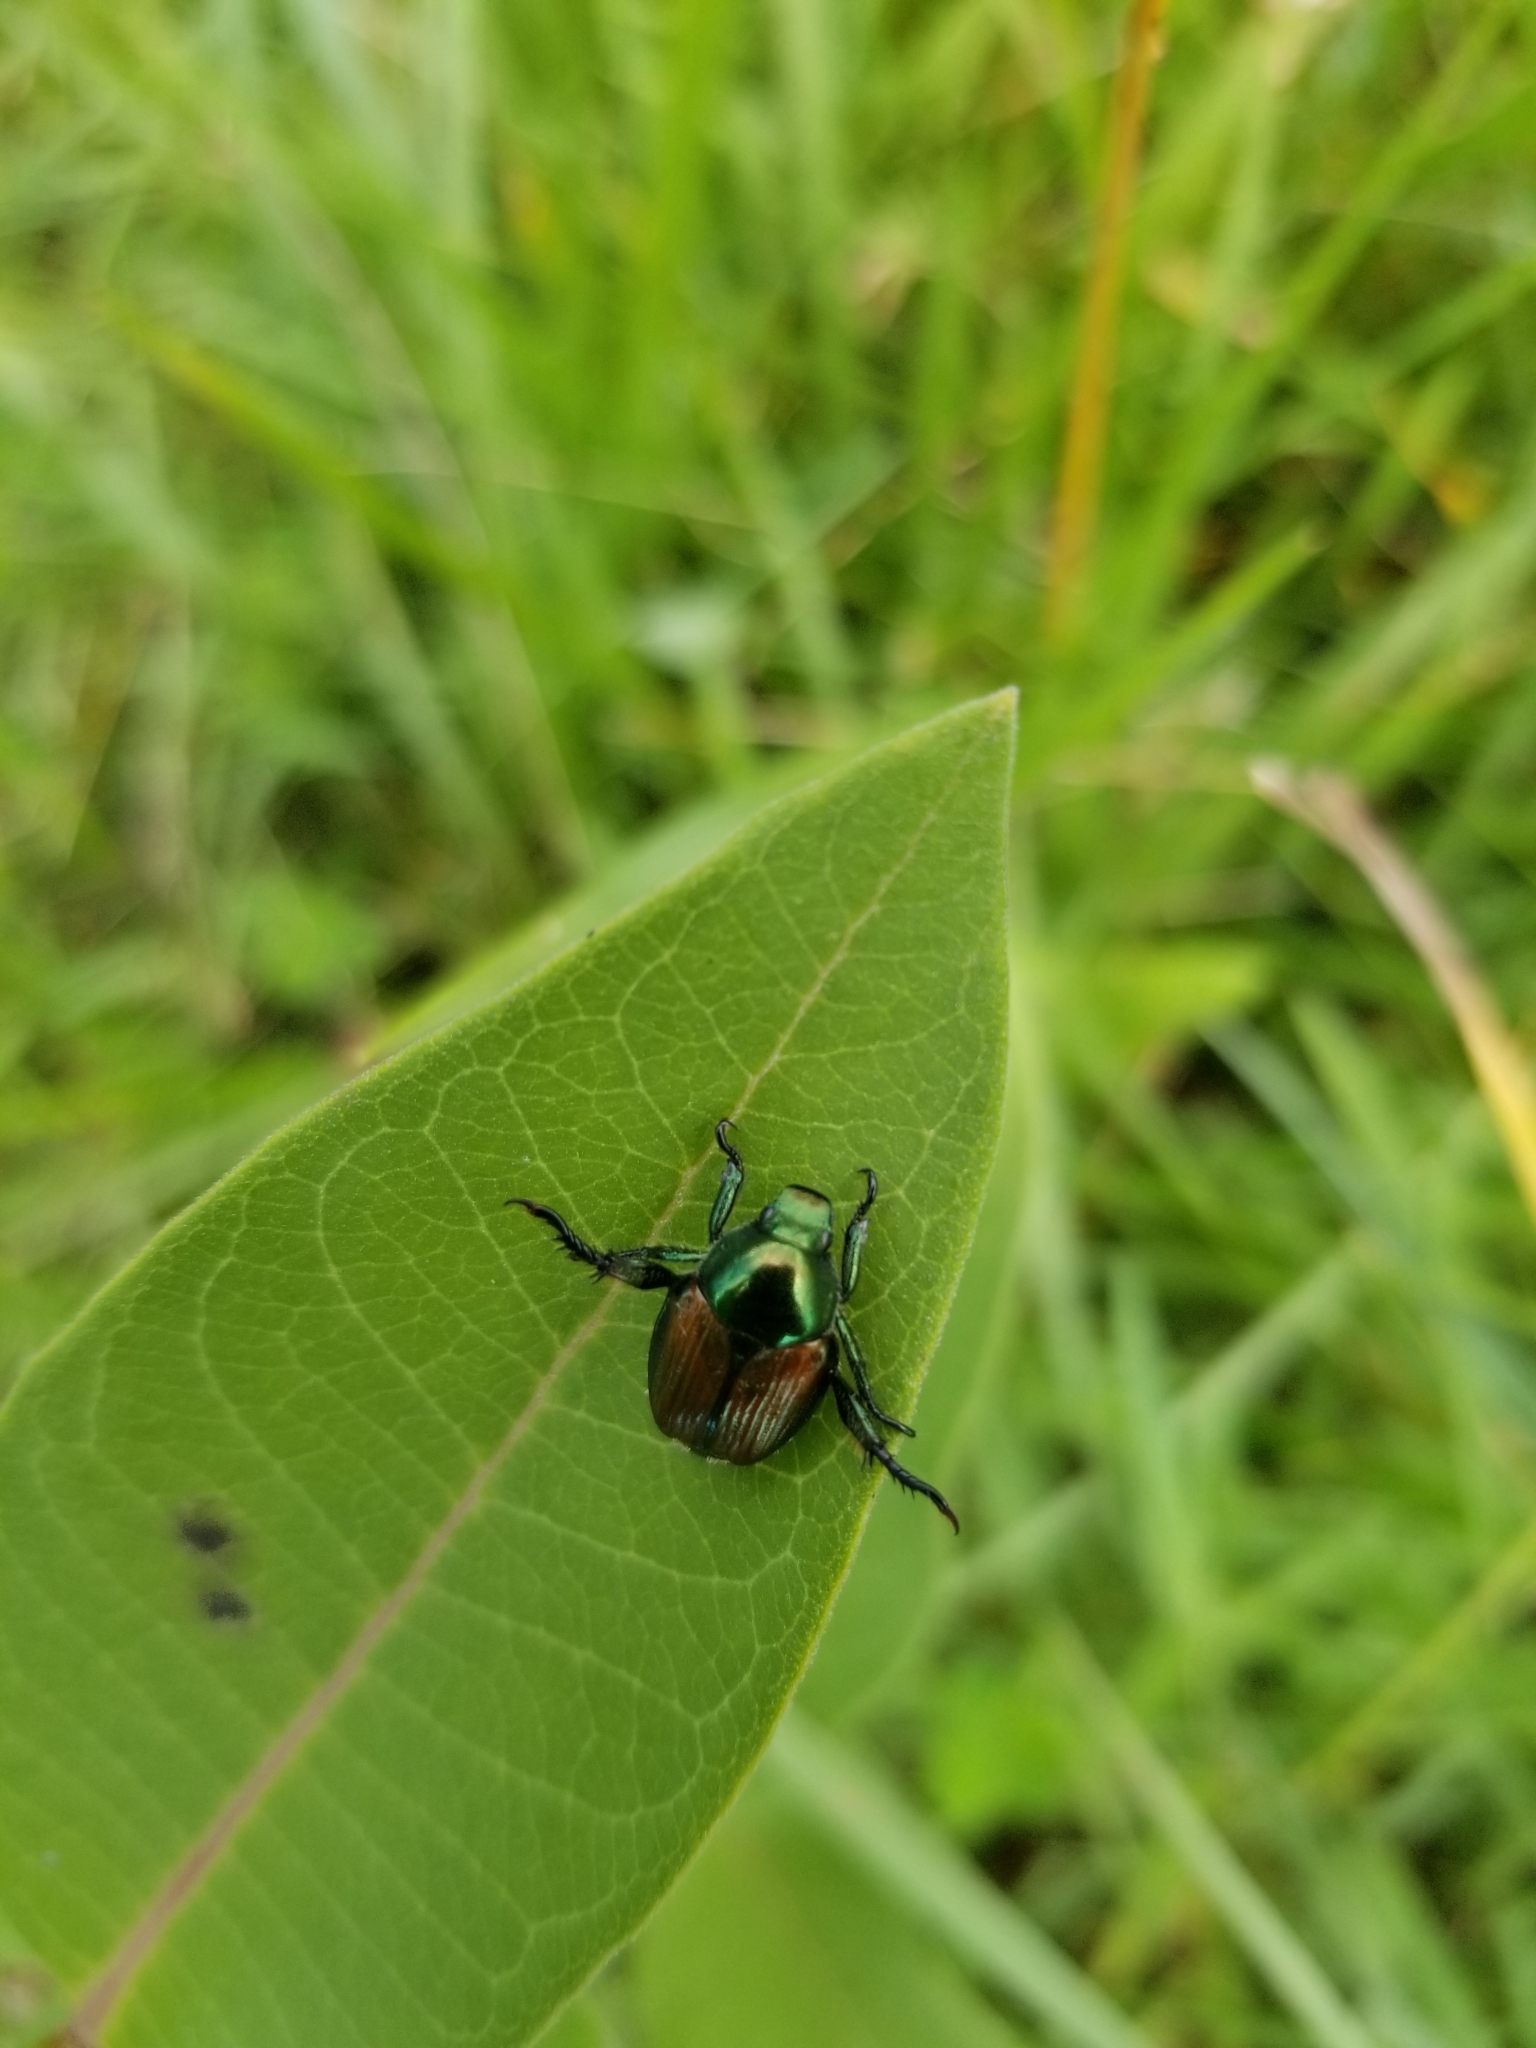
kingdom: Animalia
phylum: Arthropoda
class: Insecta
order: Coleoptera
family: Scarabaeidae
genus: Popillia
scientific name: Popillia japonica
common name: Japanese beetle
